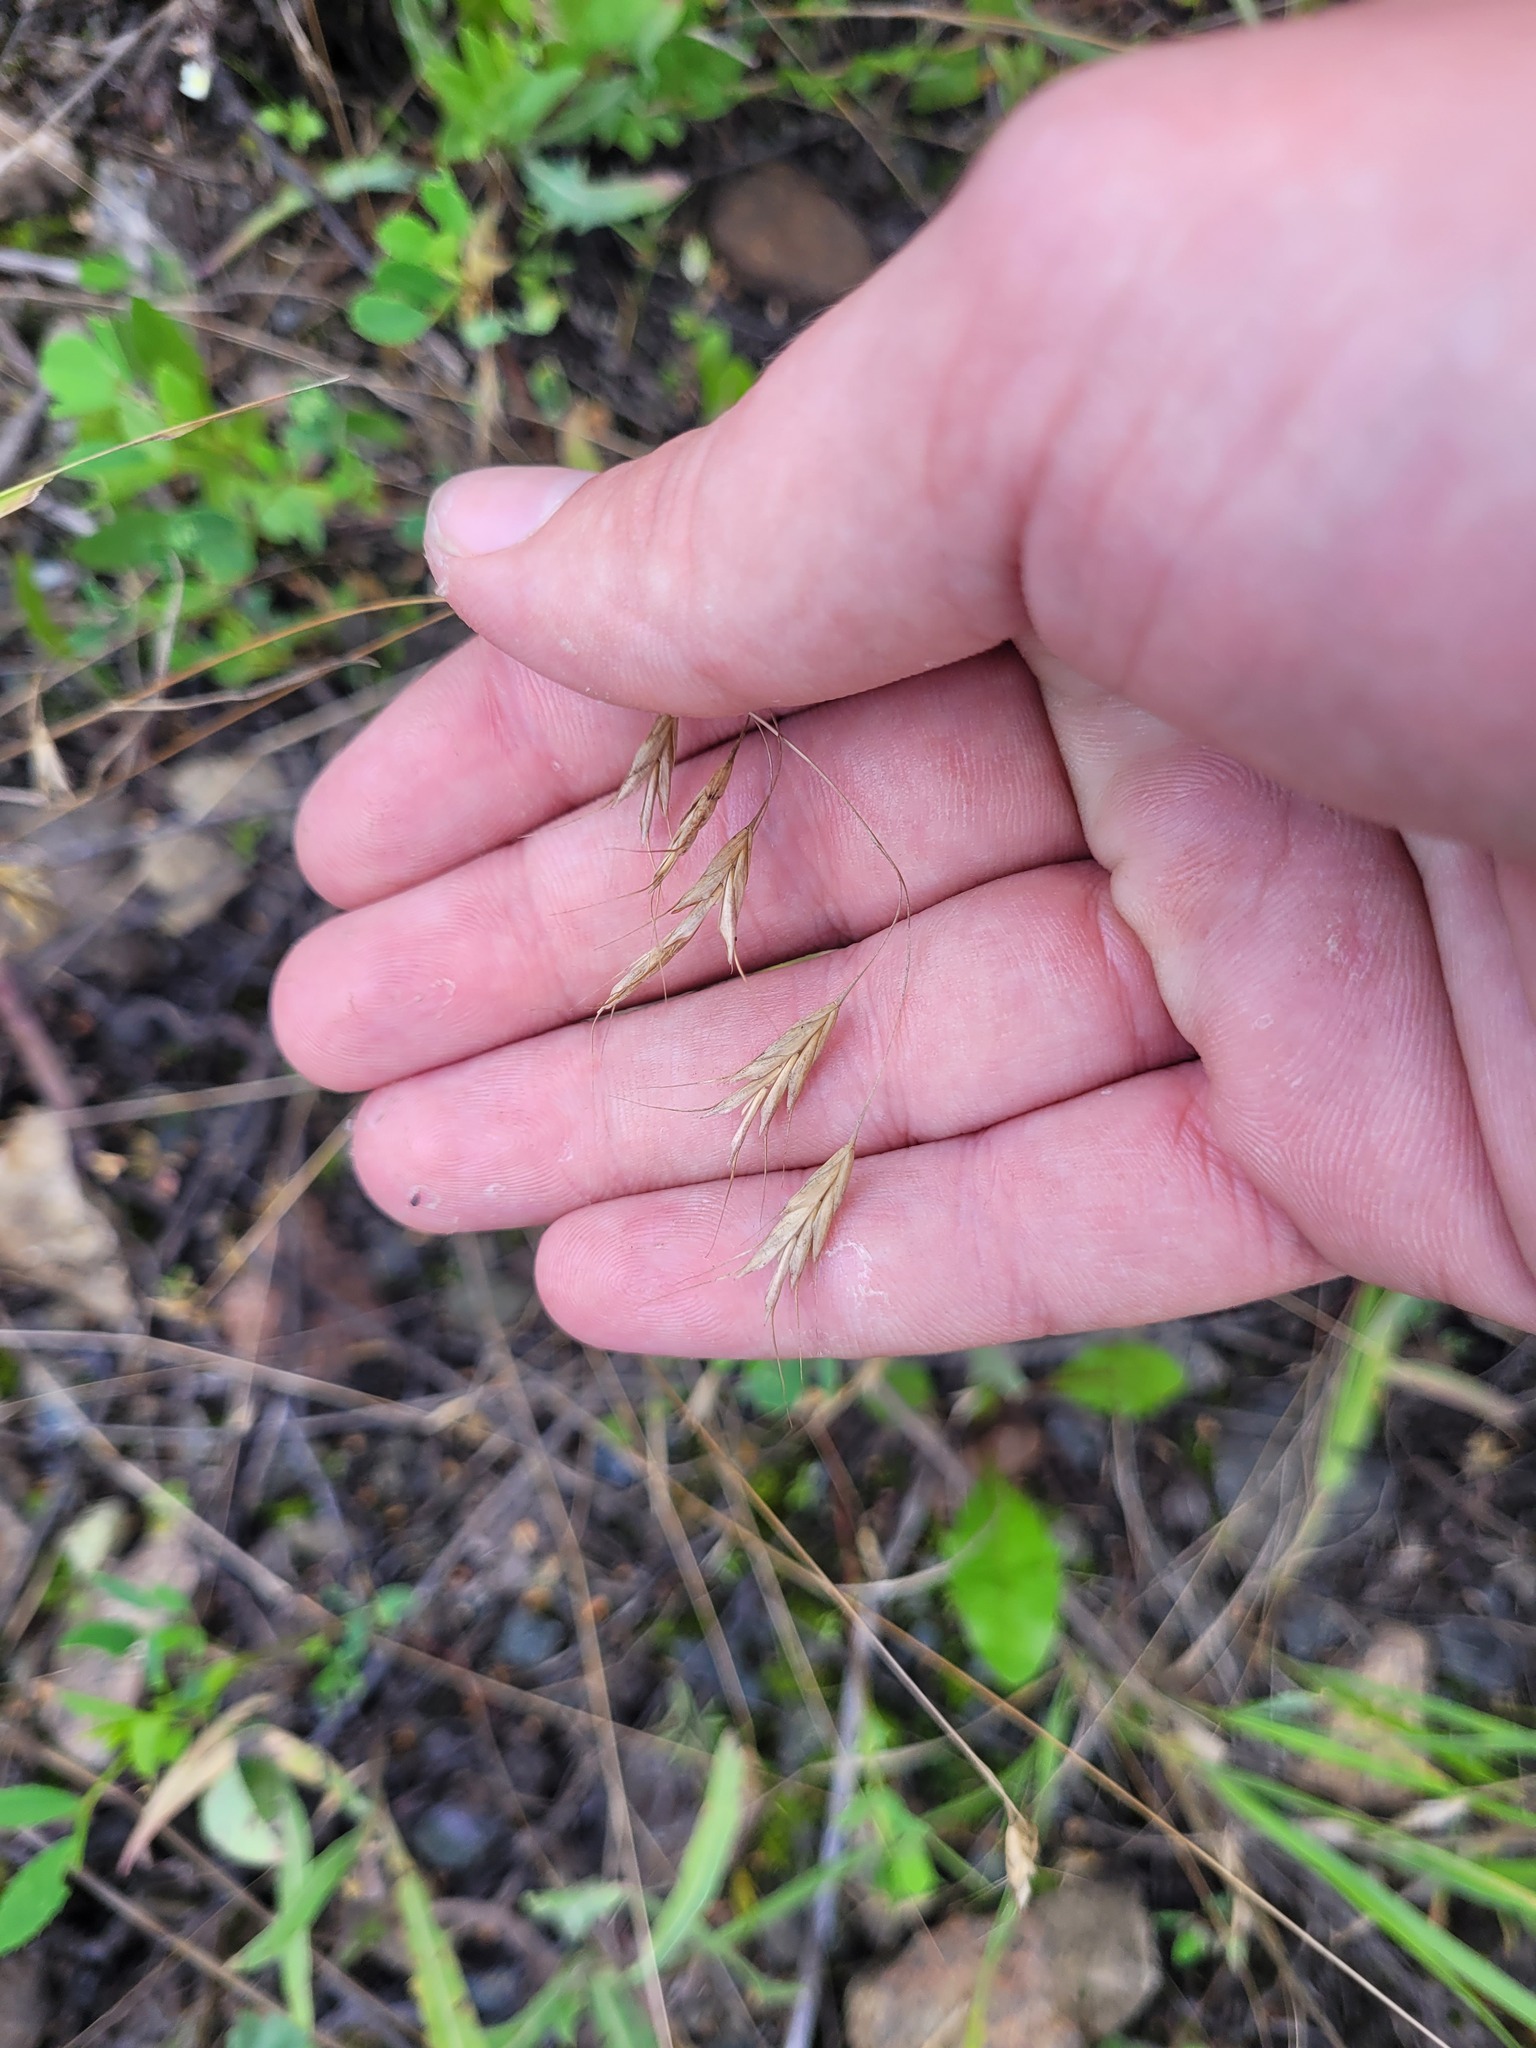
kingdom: Plantae
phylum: Tracheophyta
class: Liliopsida
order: Poales
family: Poaceae
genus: Bromus
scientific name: Bromus japonicus
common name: Japanese brome
